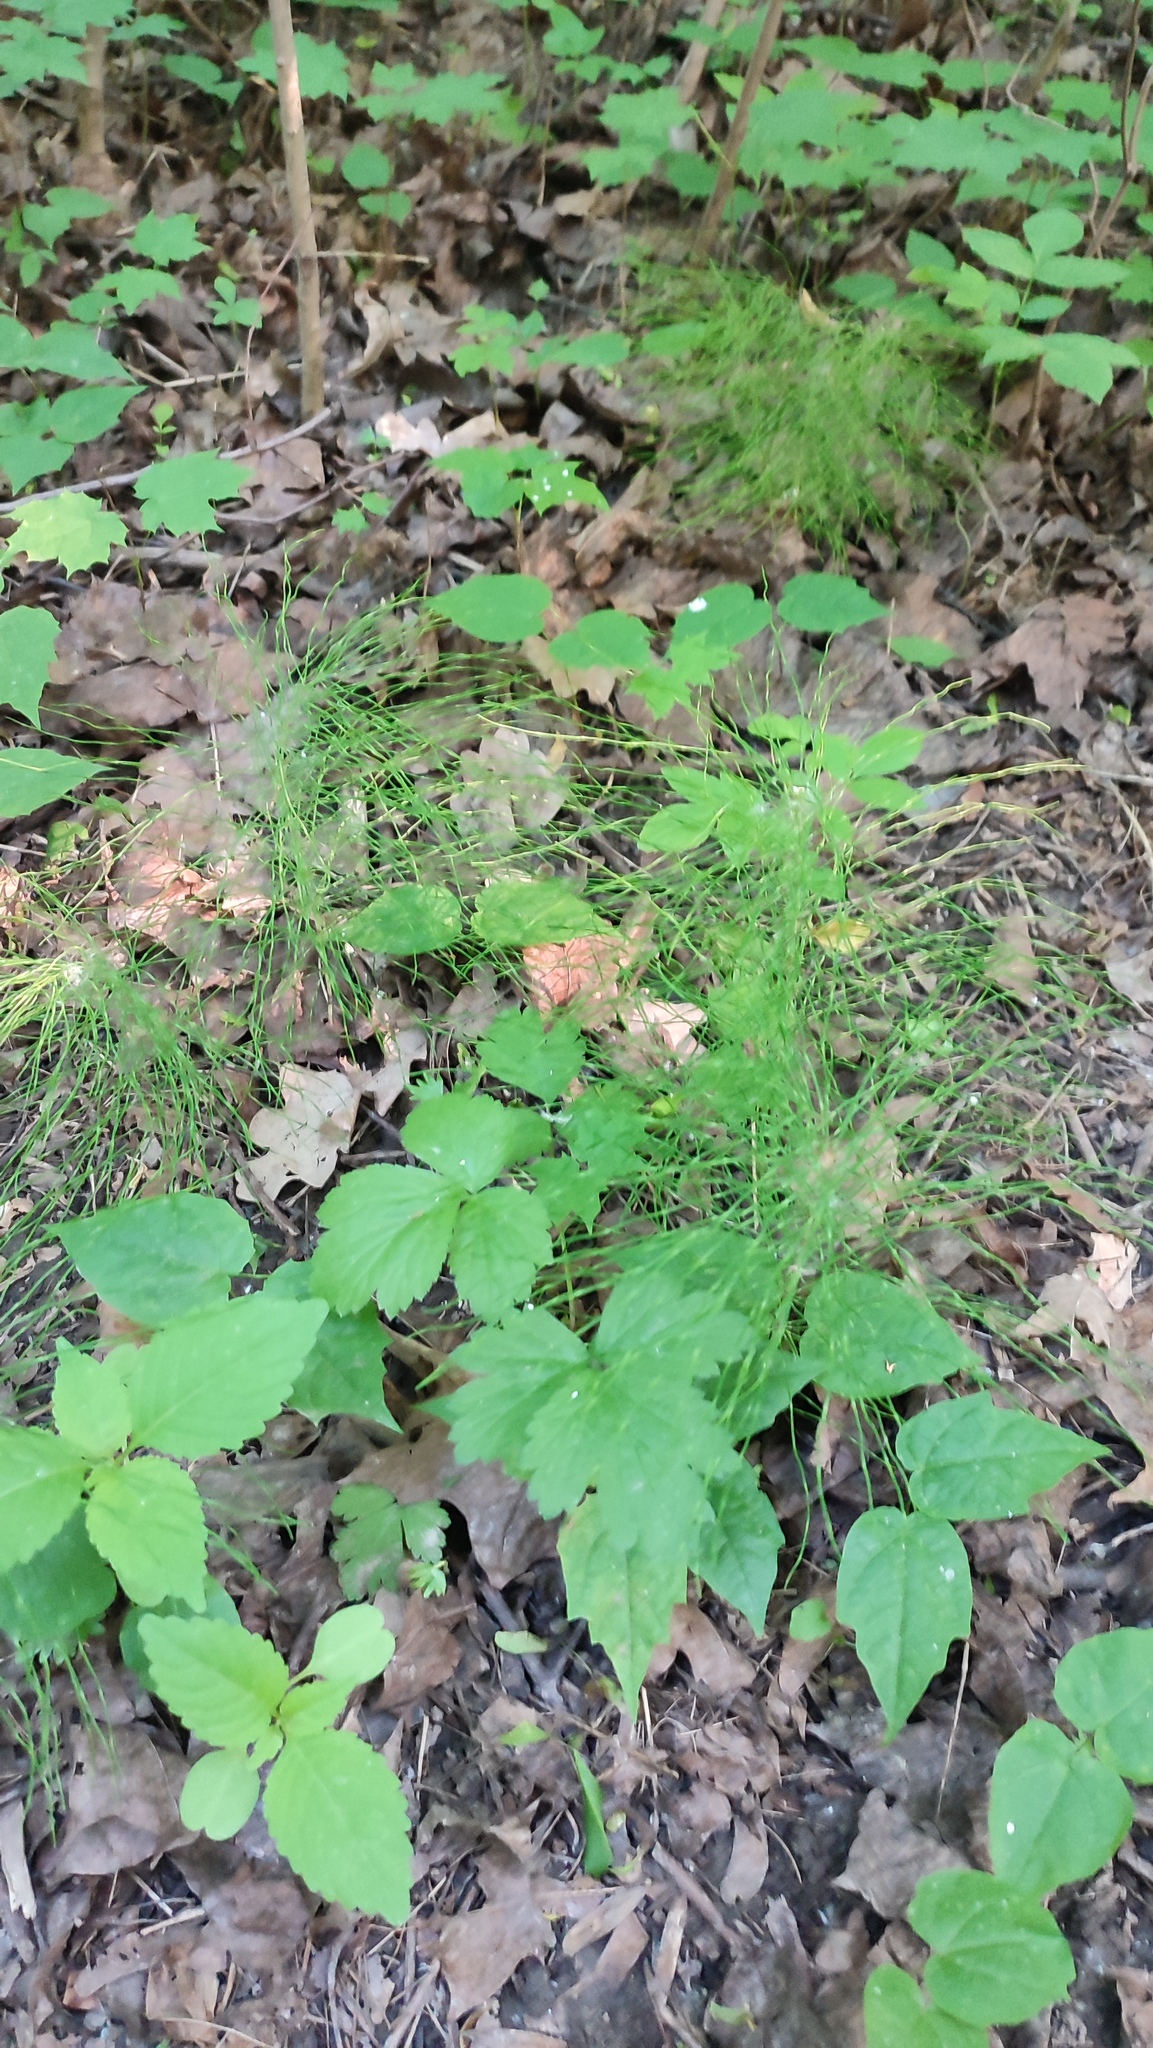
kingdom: Plantae
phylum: Tracheophyta
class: Polypodiopsida
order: Equisetales
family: Equisetaceae
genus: Equisetum
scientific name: Equisetum pratense
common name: Meadow horsetail
